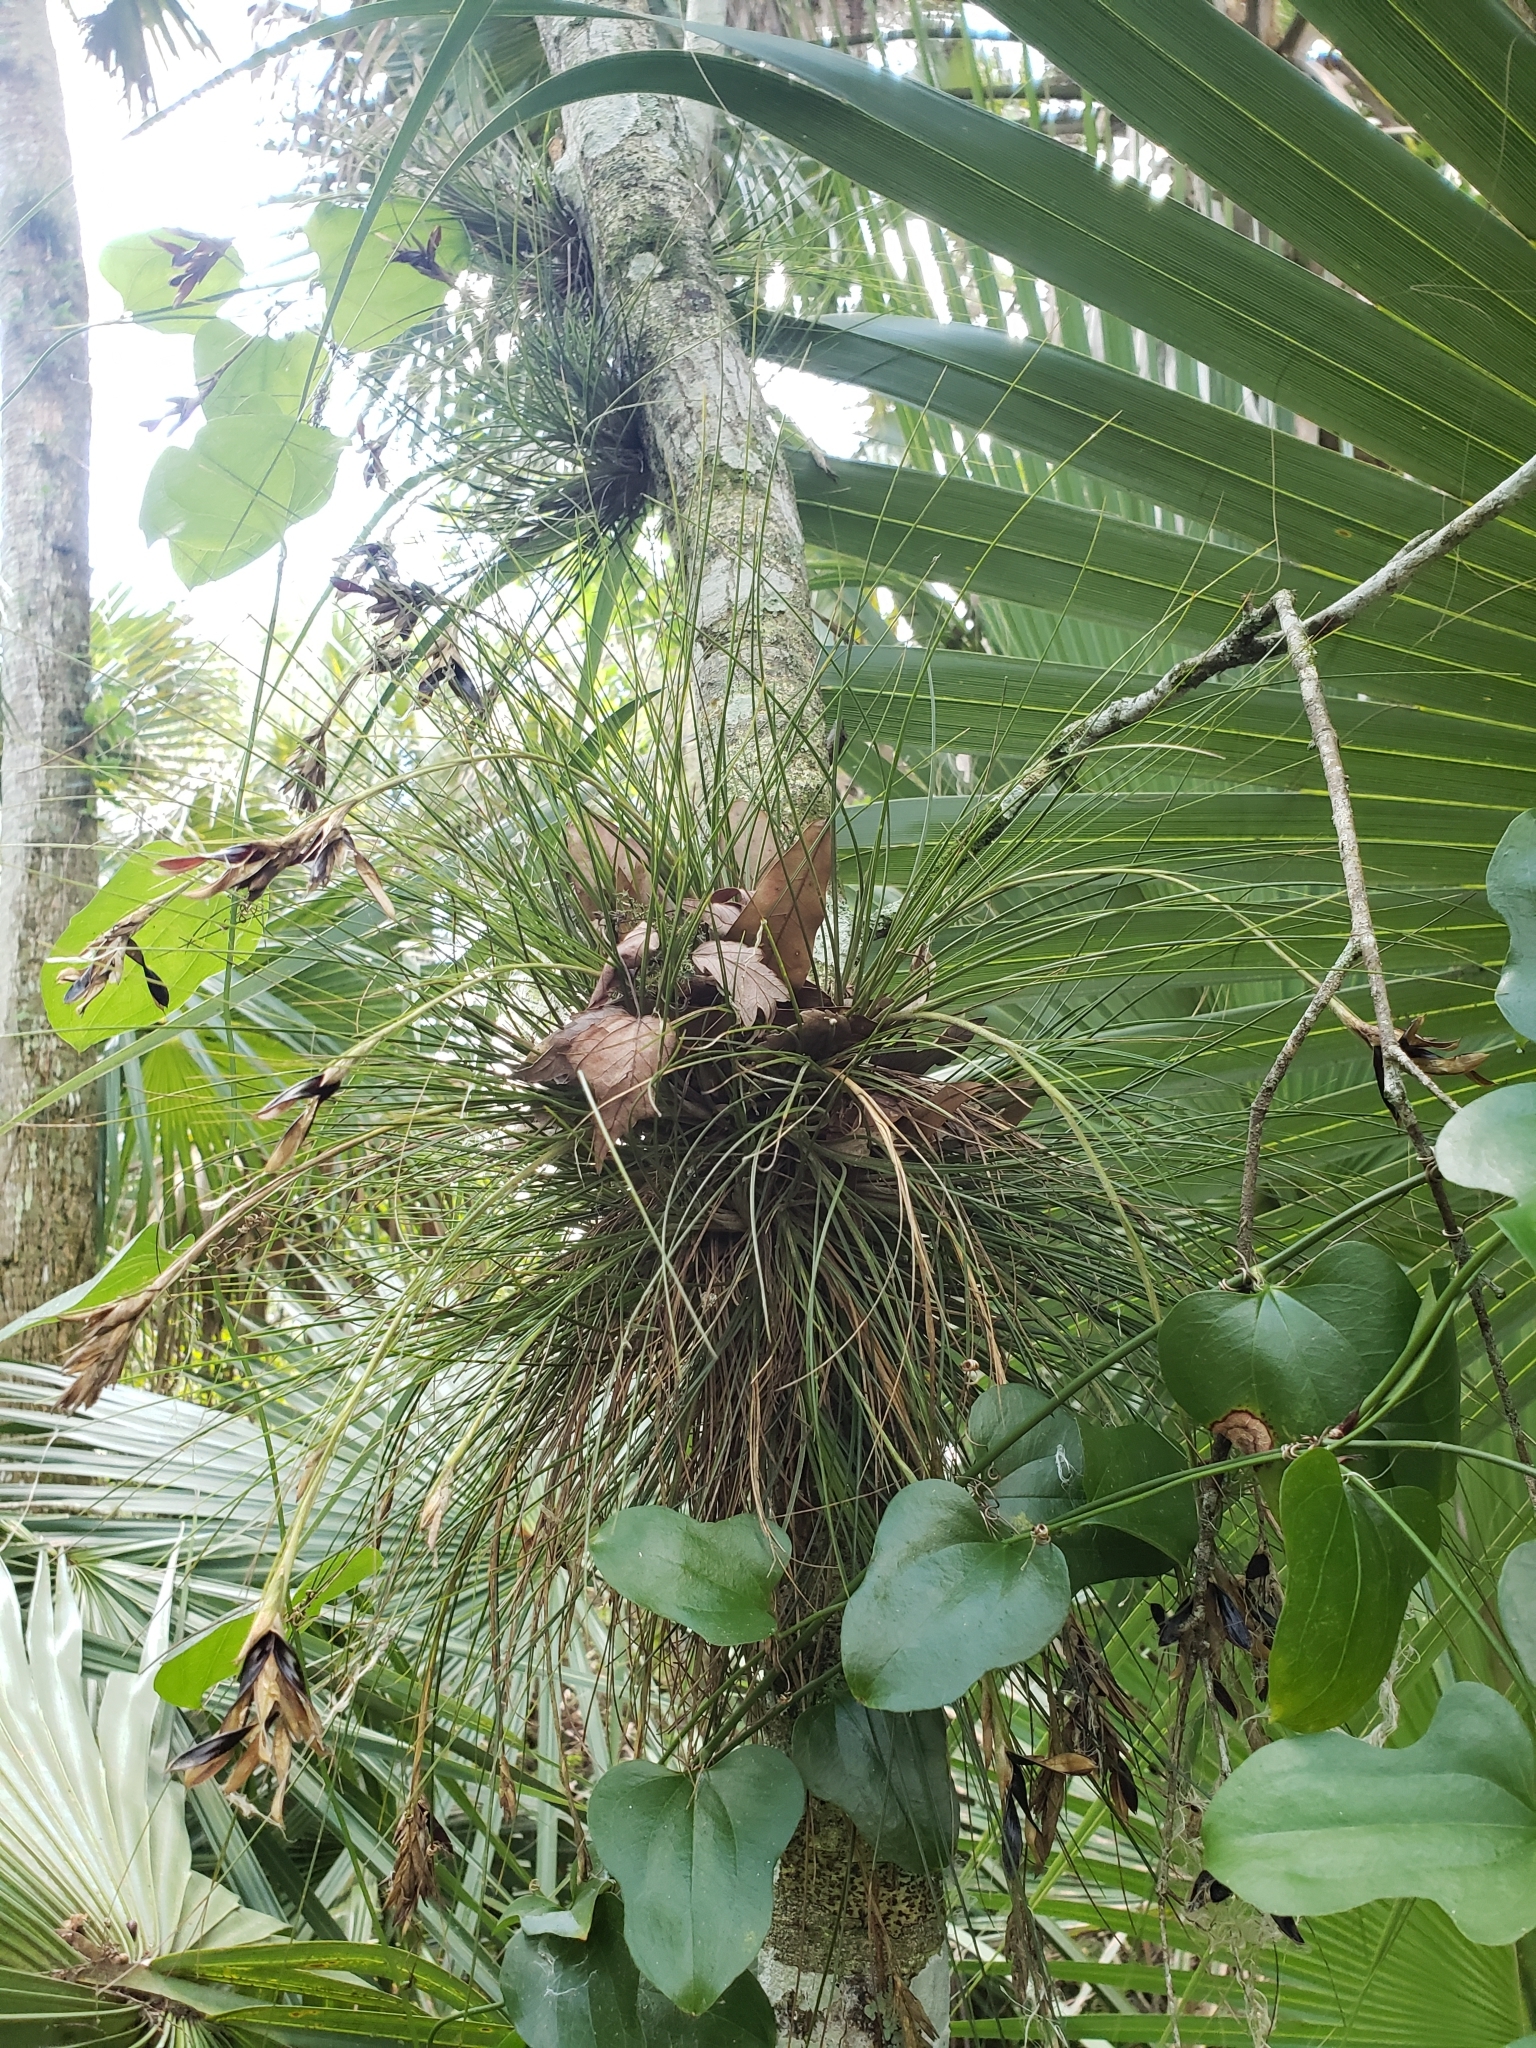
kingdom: Plantae
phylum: Tracheophyta
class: Liliopsida
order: Poales
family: Bromeliaceae
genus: Tillandsia
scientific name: Tillandsia setacea
